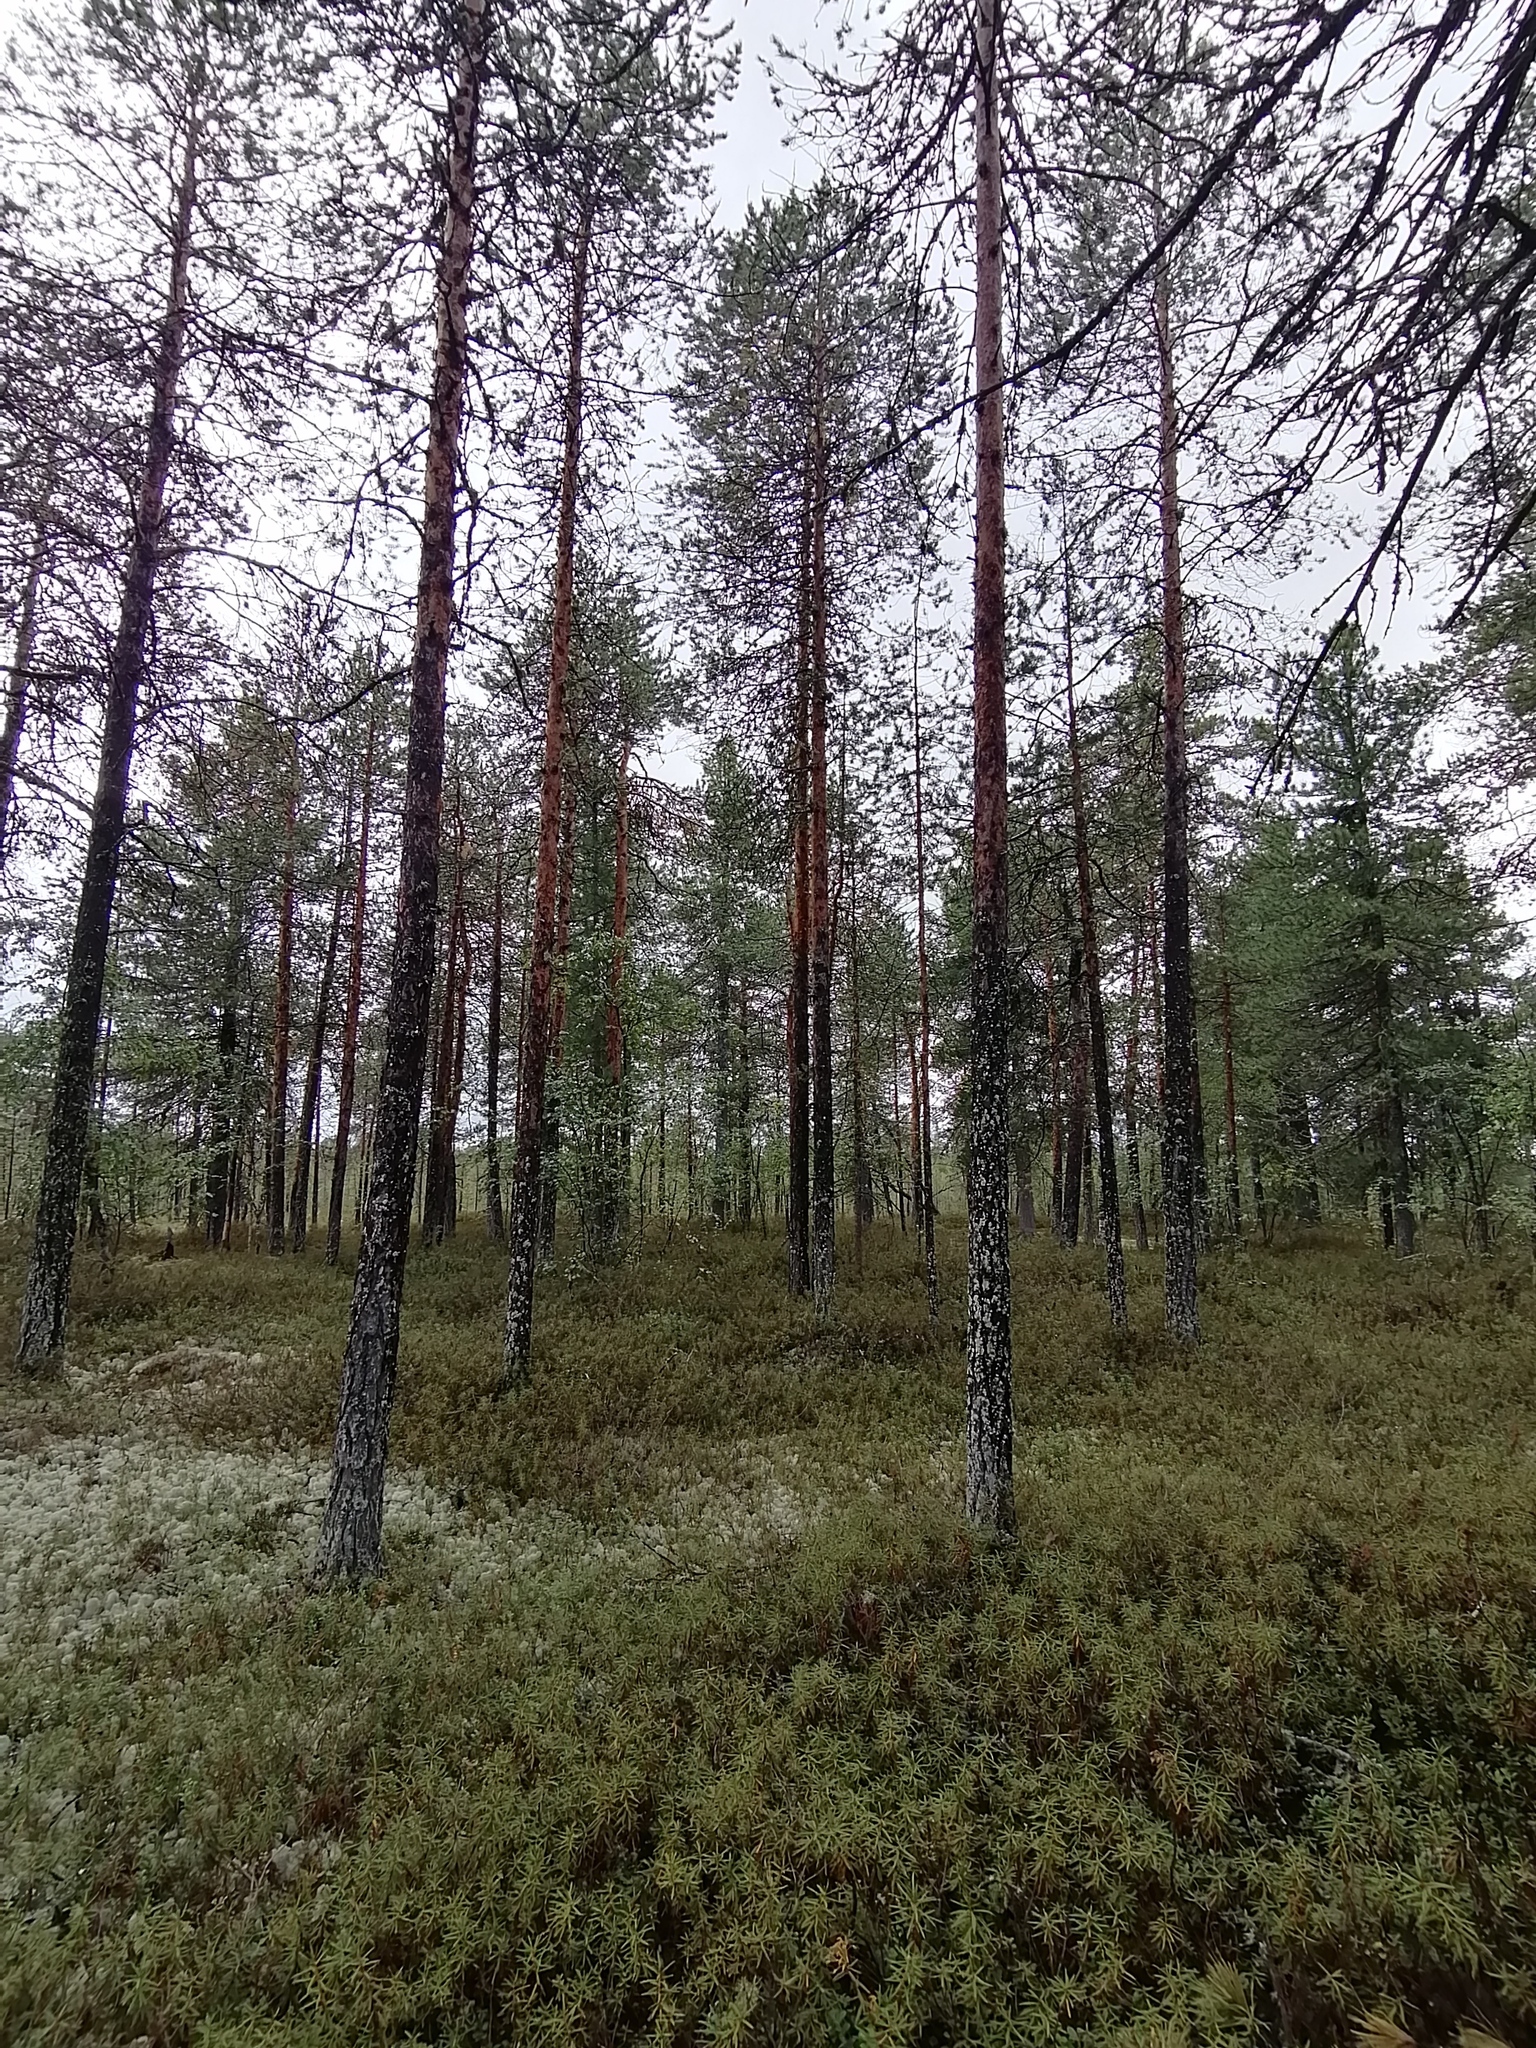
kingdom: Plantae
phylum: Tracheophyta
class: Pinopsida
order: Pinales
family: Pinaceae
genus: Pinus
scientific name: Pinus sylvestris
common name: Scots pine
